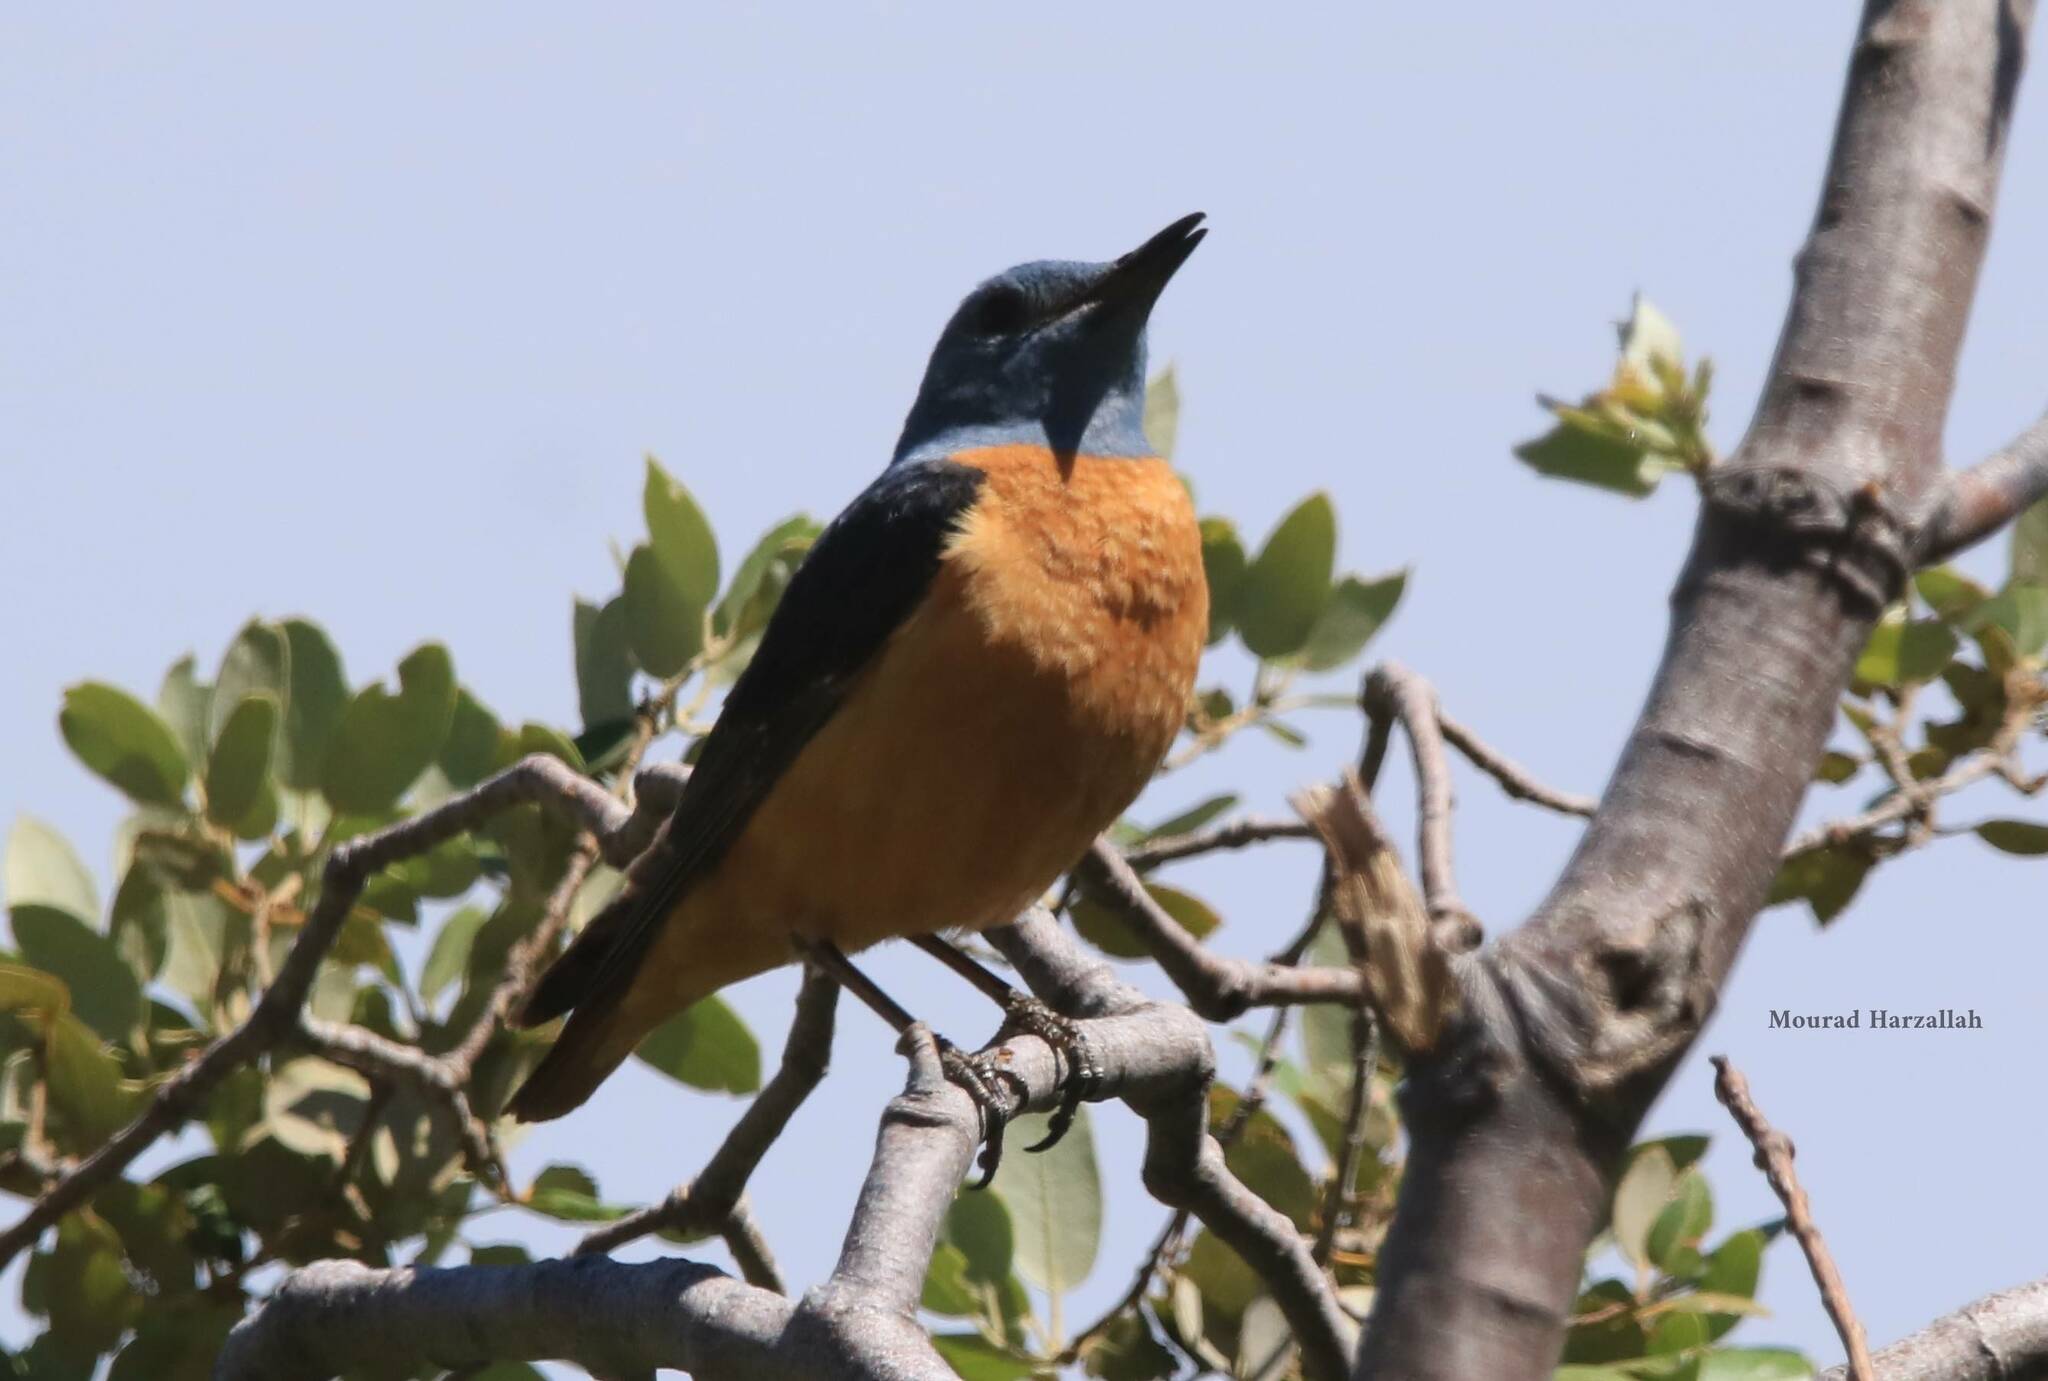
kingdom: Animalia
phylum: Chordata
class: Aves
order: Passeriformes
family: Muscicapidae
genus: Monticola
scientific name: Monticola saxatilis
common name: Rufous-tailed rock thrush
